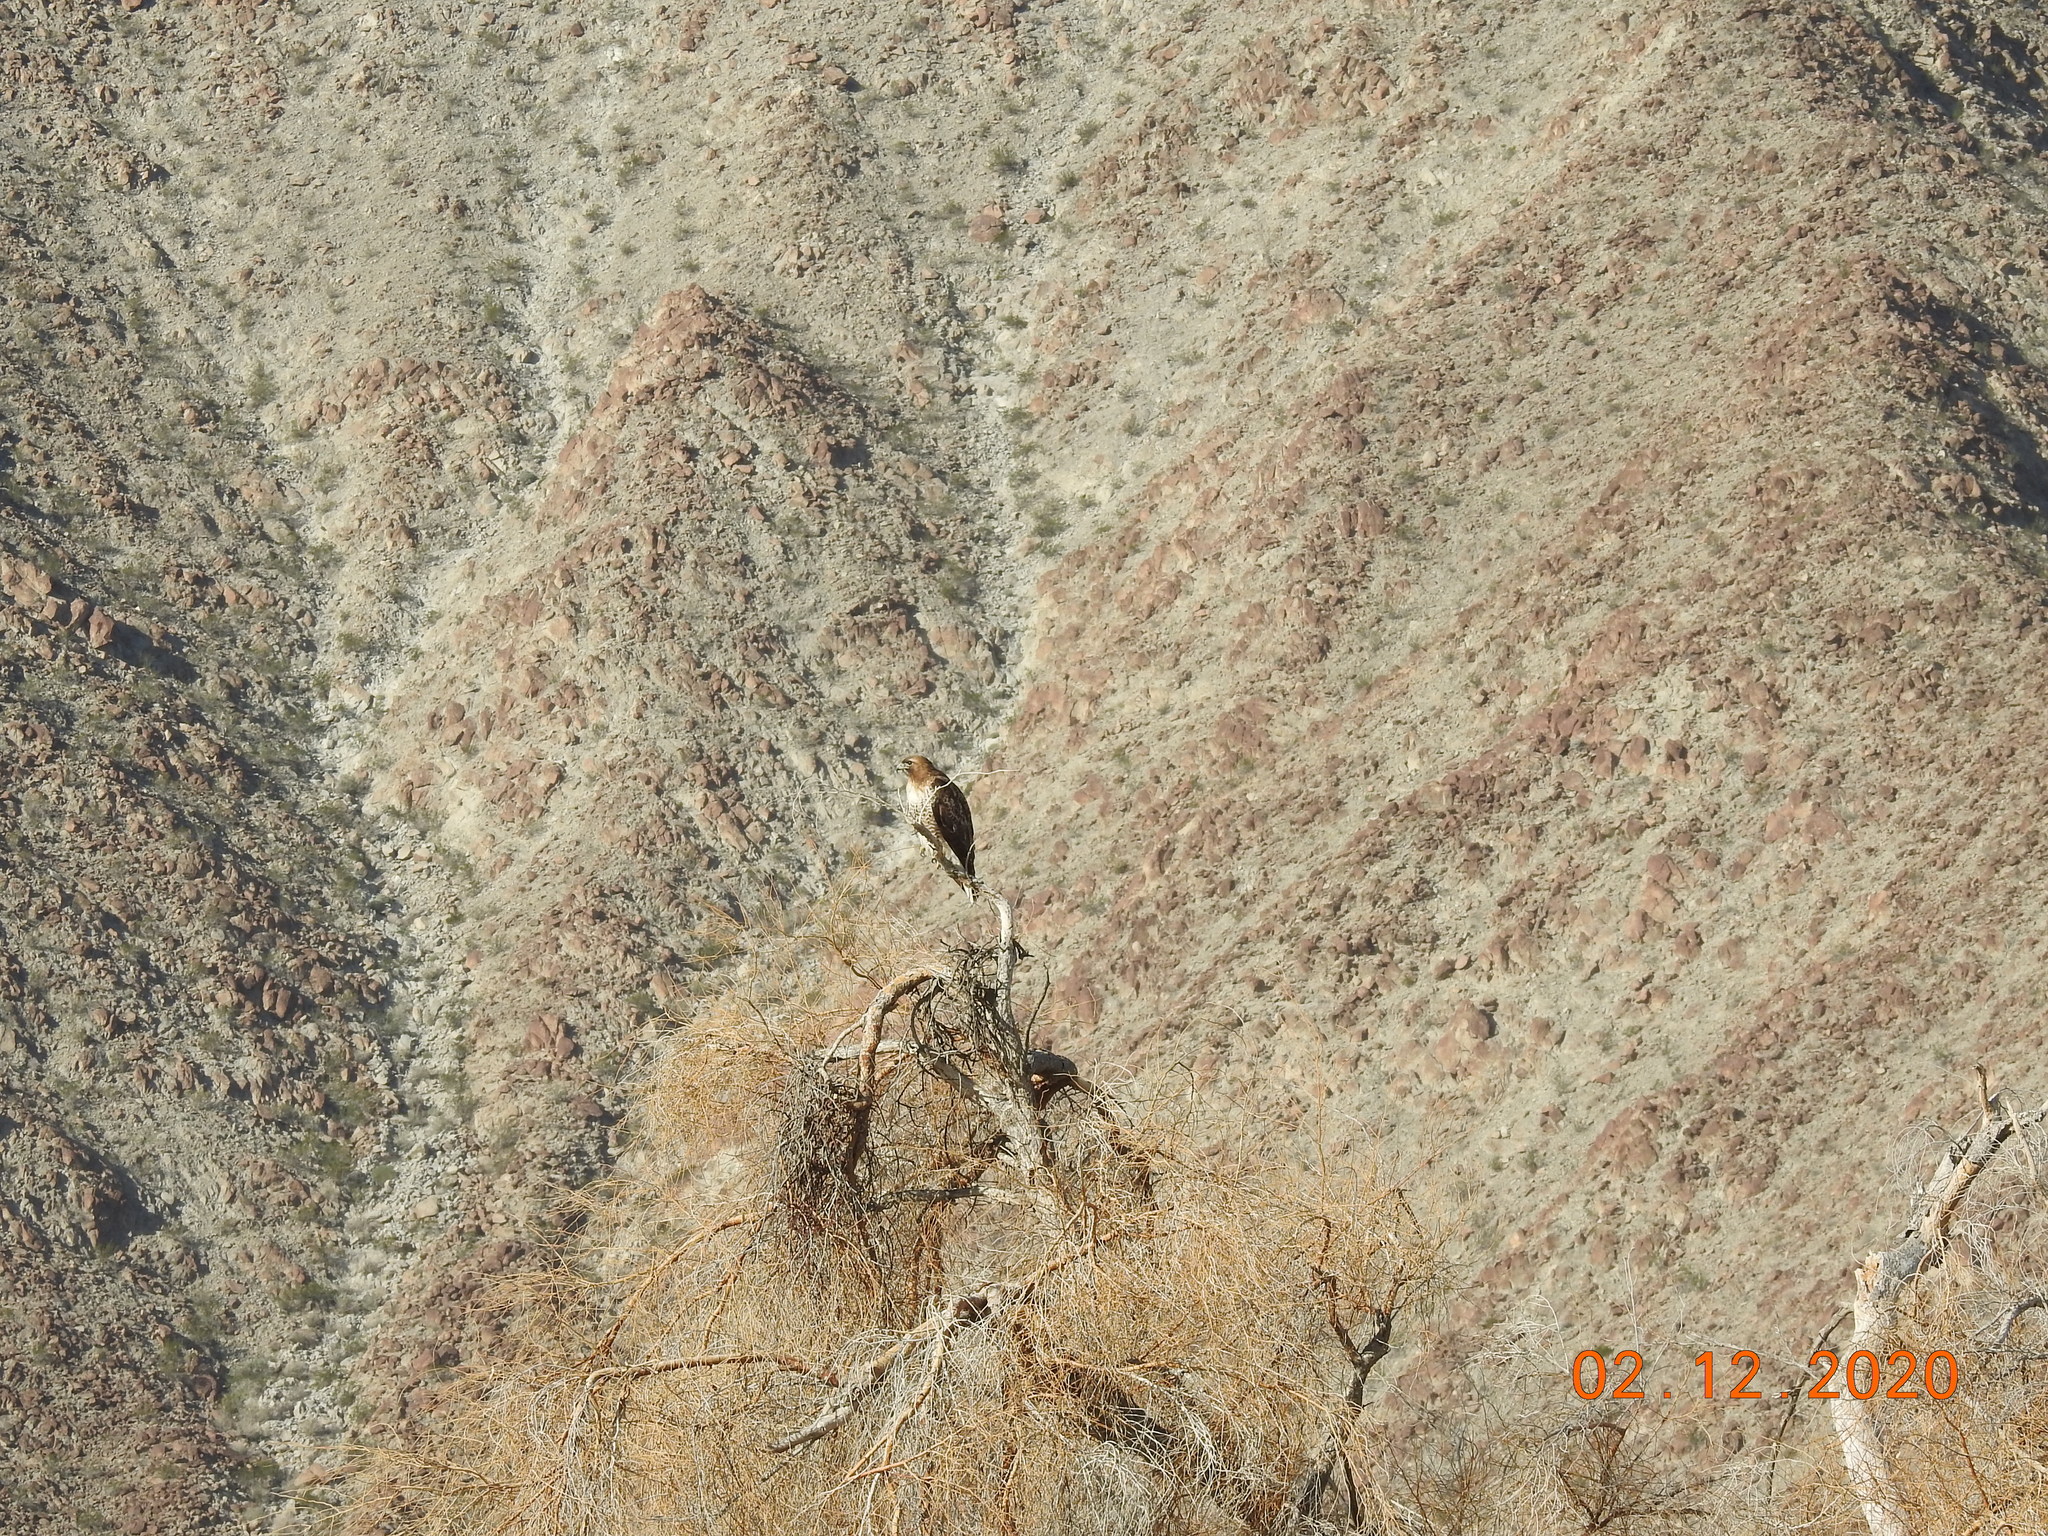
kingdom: Animalia
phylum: Chordata
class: Aves
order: Accipitriformes
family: Accipitridae
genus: Buteo
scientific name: Buteo jamaicensis
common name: Red-tailed hawk
